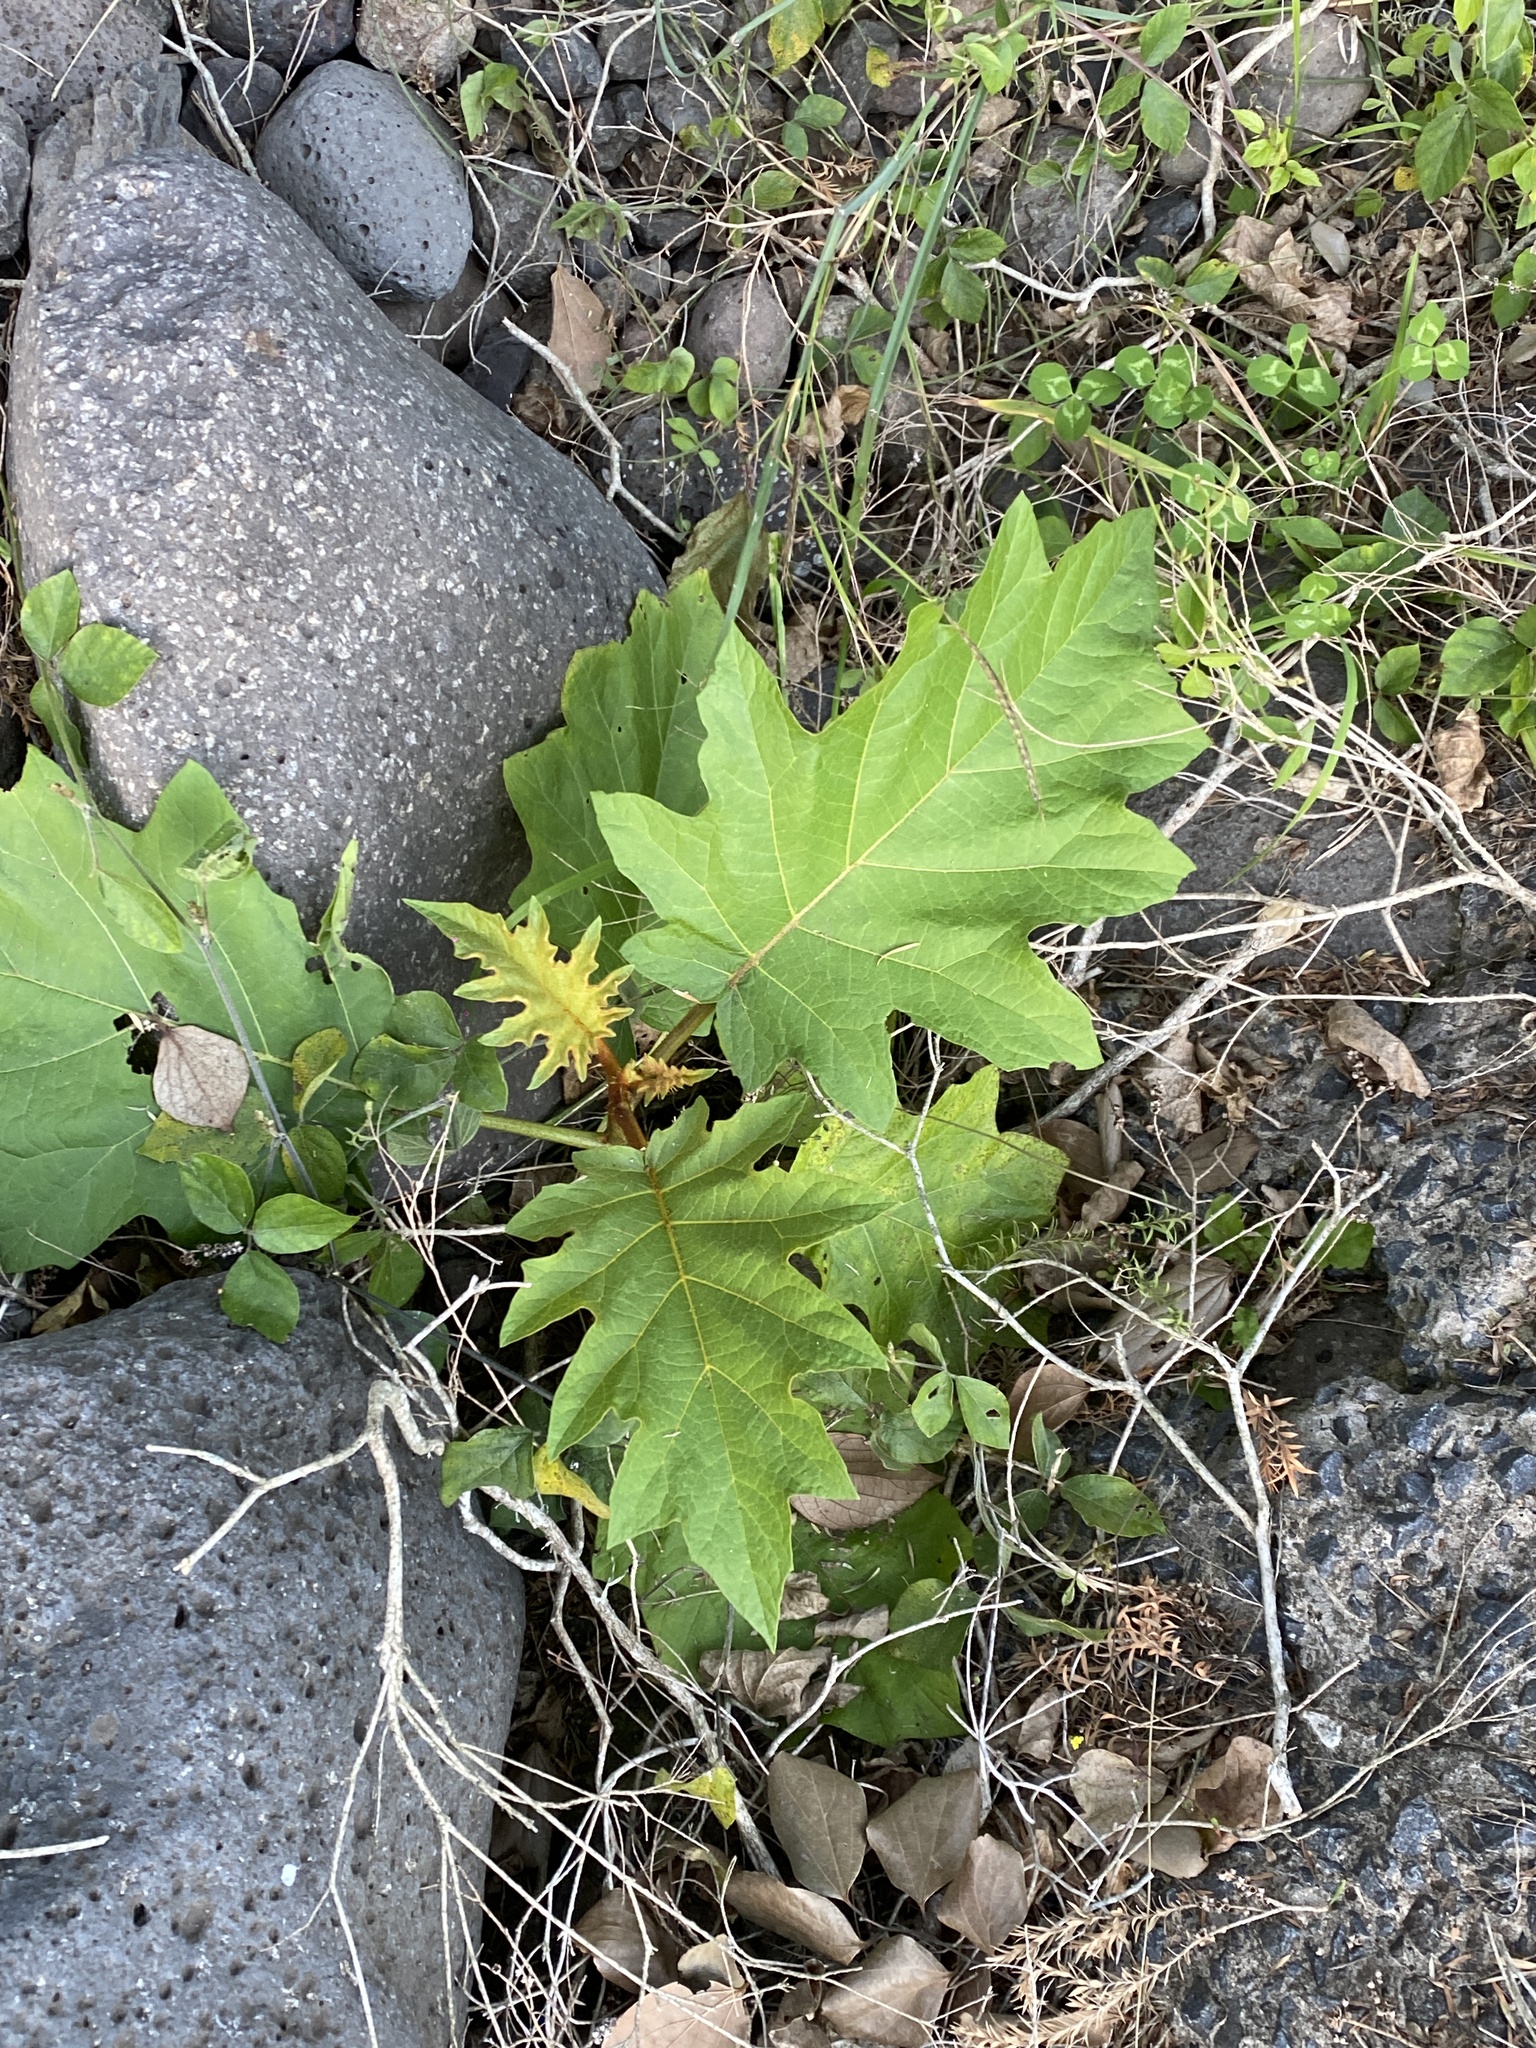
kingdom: Plantae
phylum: Tracheophyta
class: Magnoliopsida
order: Solanales
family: Solanaceae
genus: Solanum
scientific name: Solanum chrysotrichum
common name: Nightshade
